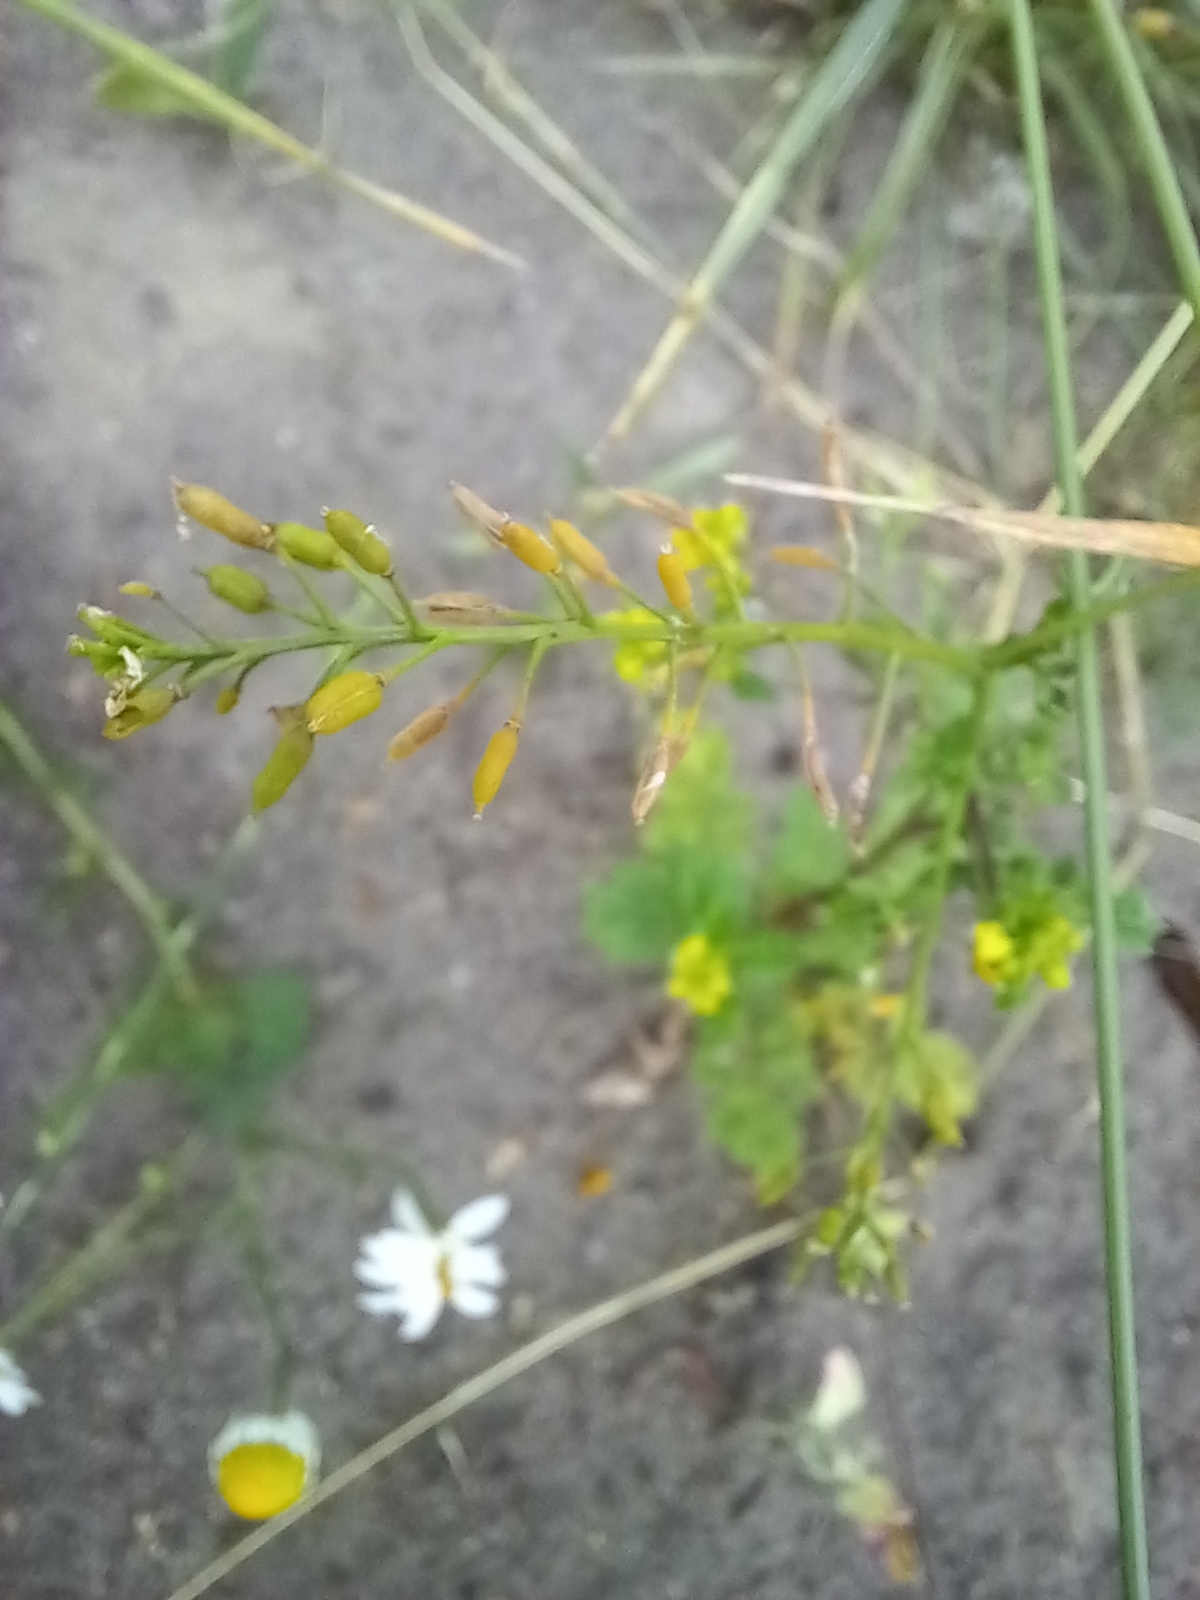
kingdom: Plantae
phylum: Tracheophyta
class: Magnoliopsida
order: Brassicales
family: Brassicaceae
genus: Rorippa
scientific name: Rorippa palustris
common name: Marsh yellow-cress
